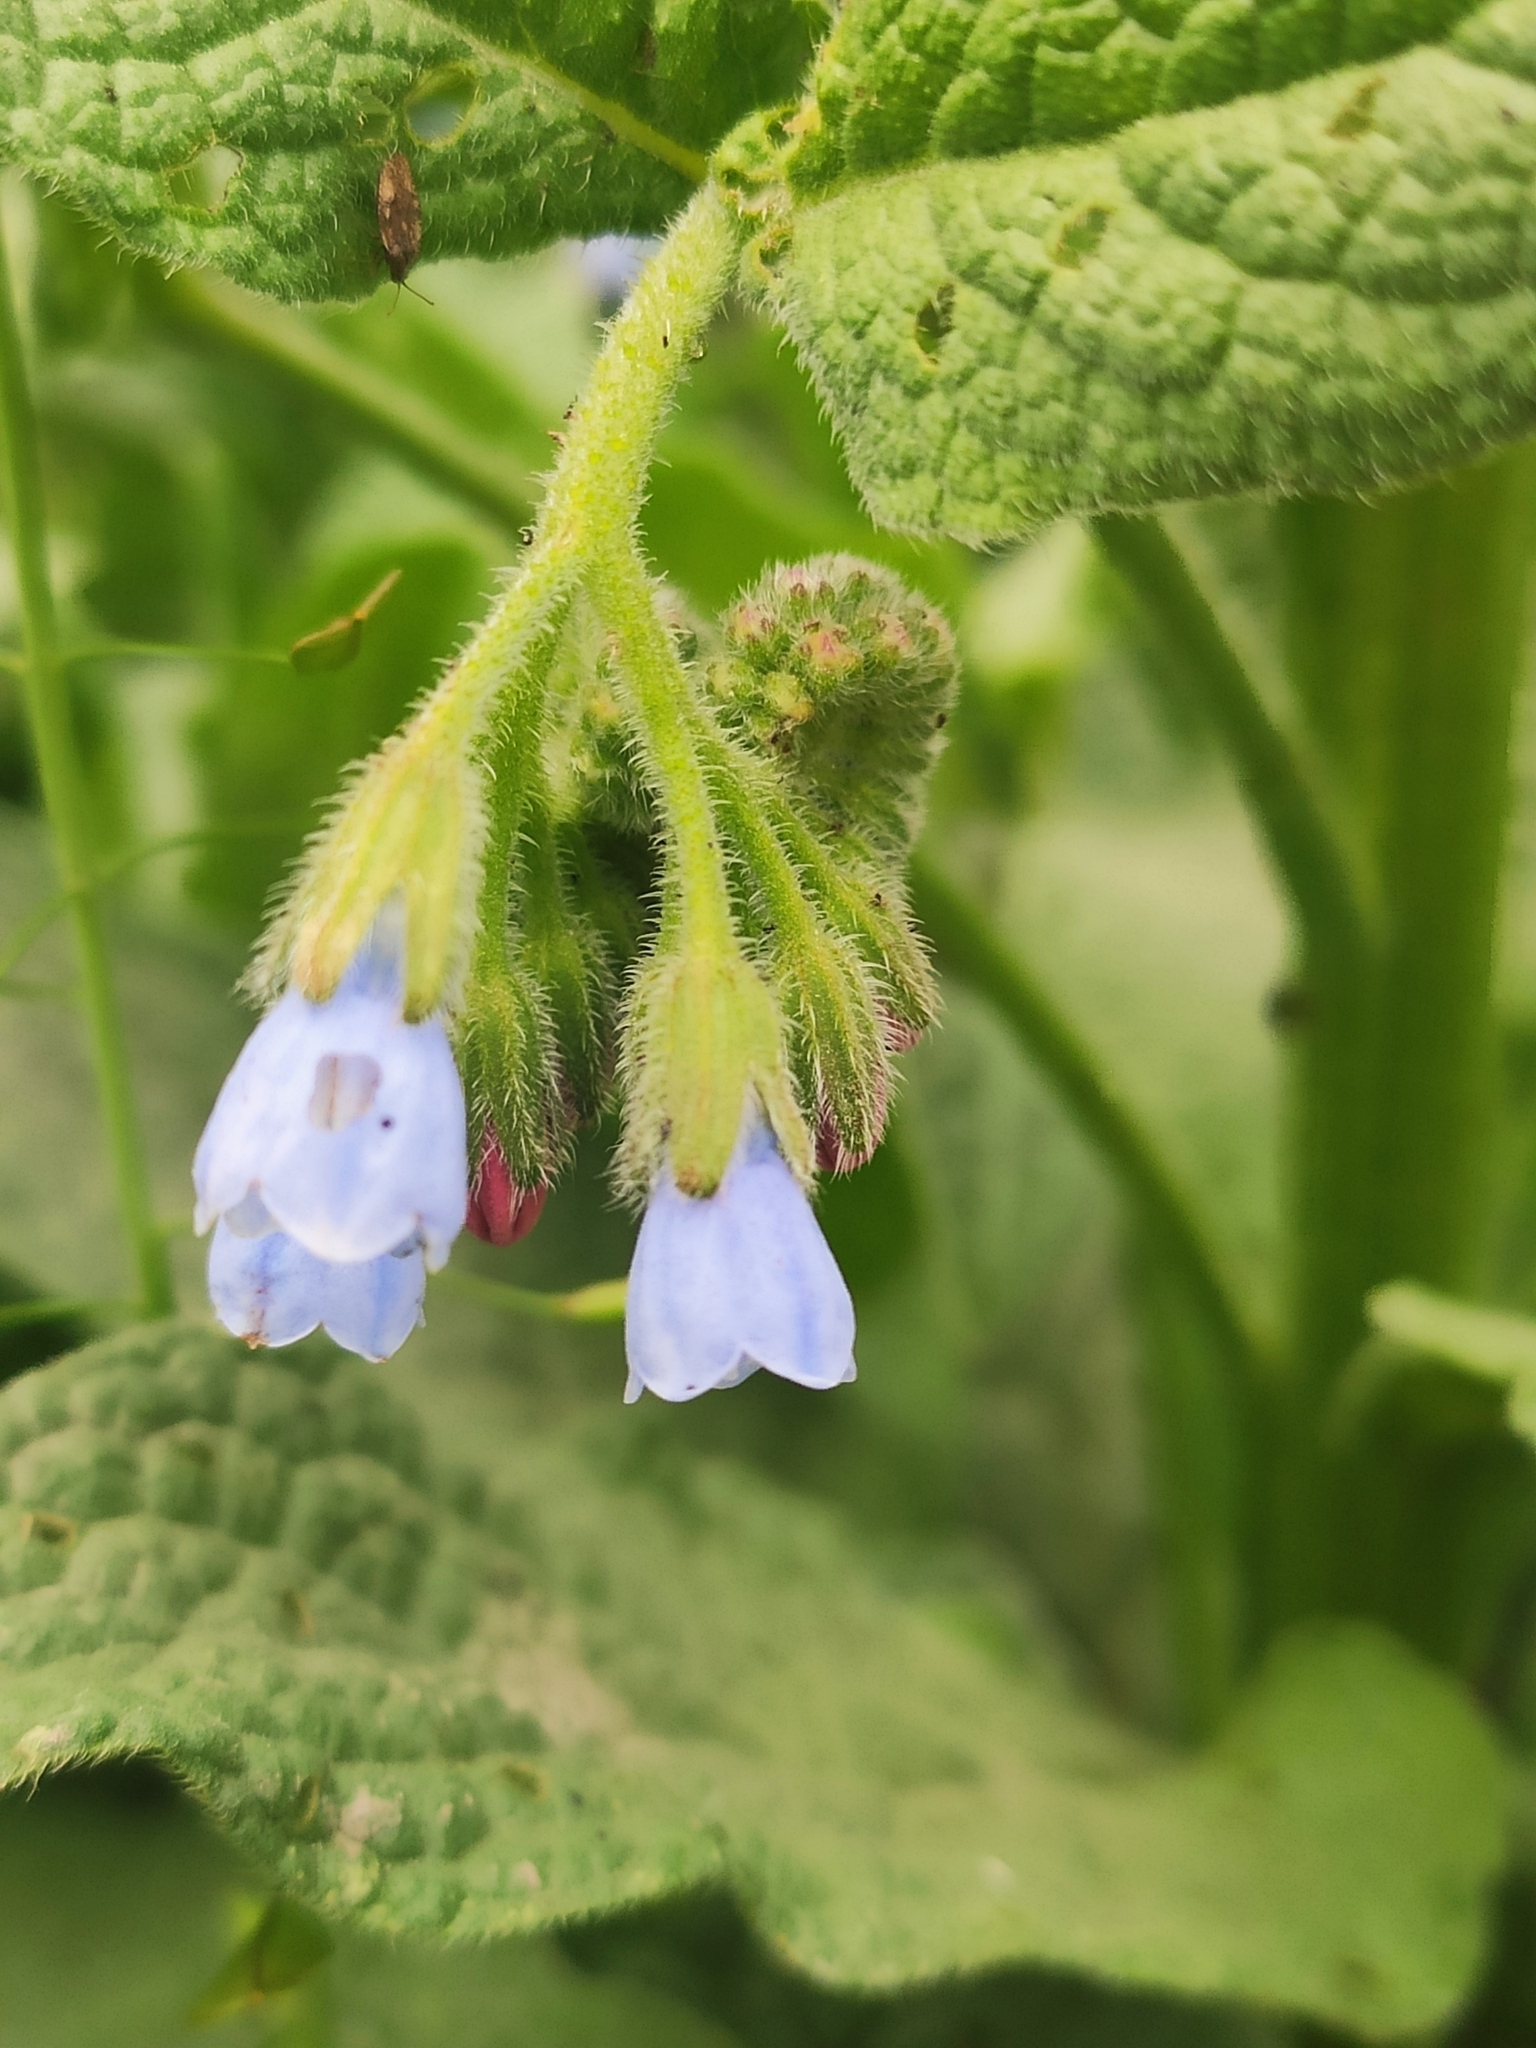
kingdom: Plantae
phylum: Tracheophyta
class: Magnoliopsida
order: Boraginales
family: Boraginaceae
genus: Symphytum
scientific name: Symphytum caucasicum
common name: Caucasian comfrey
